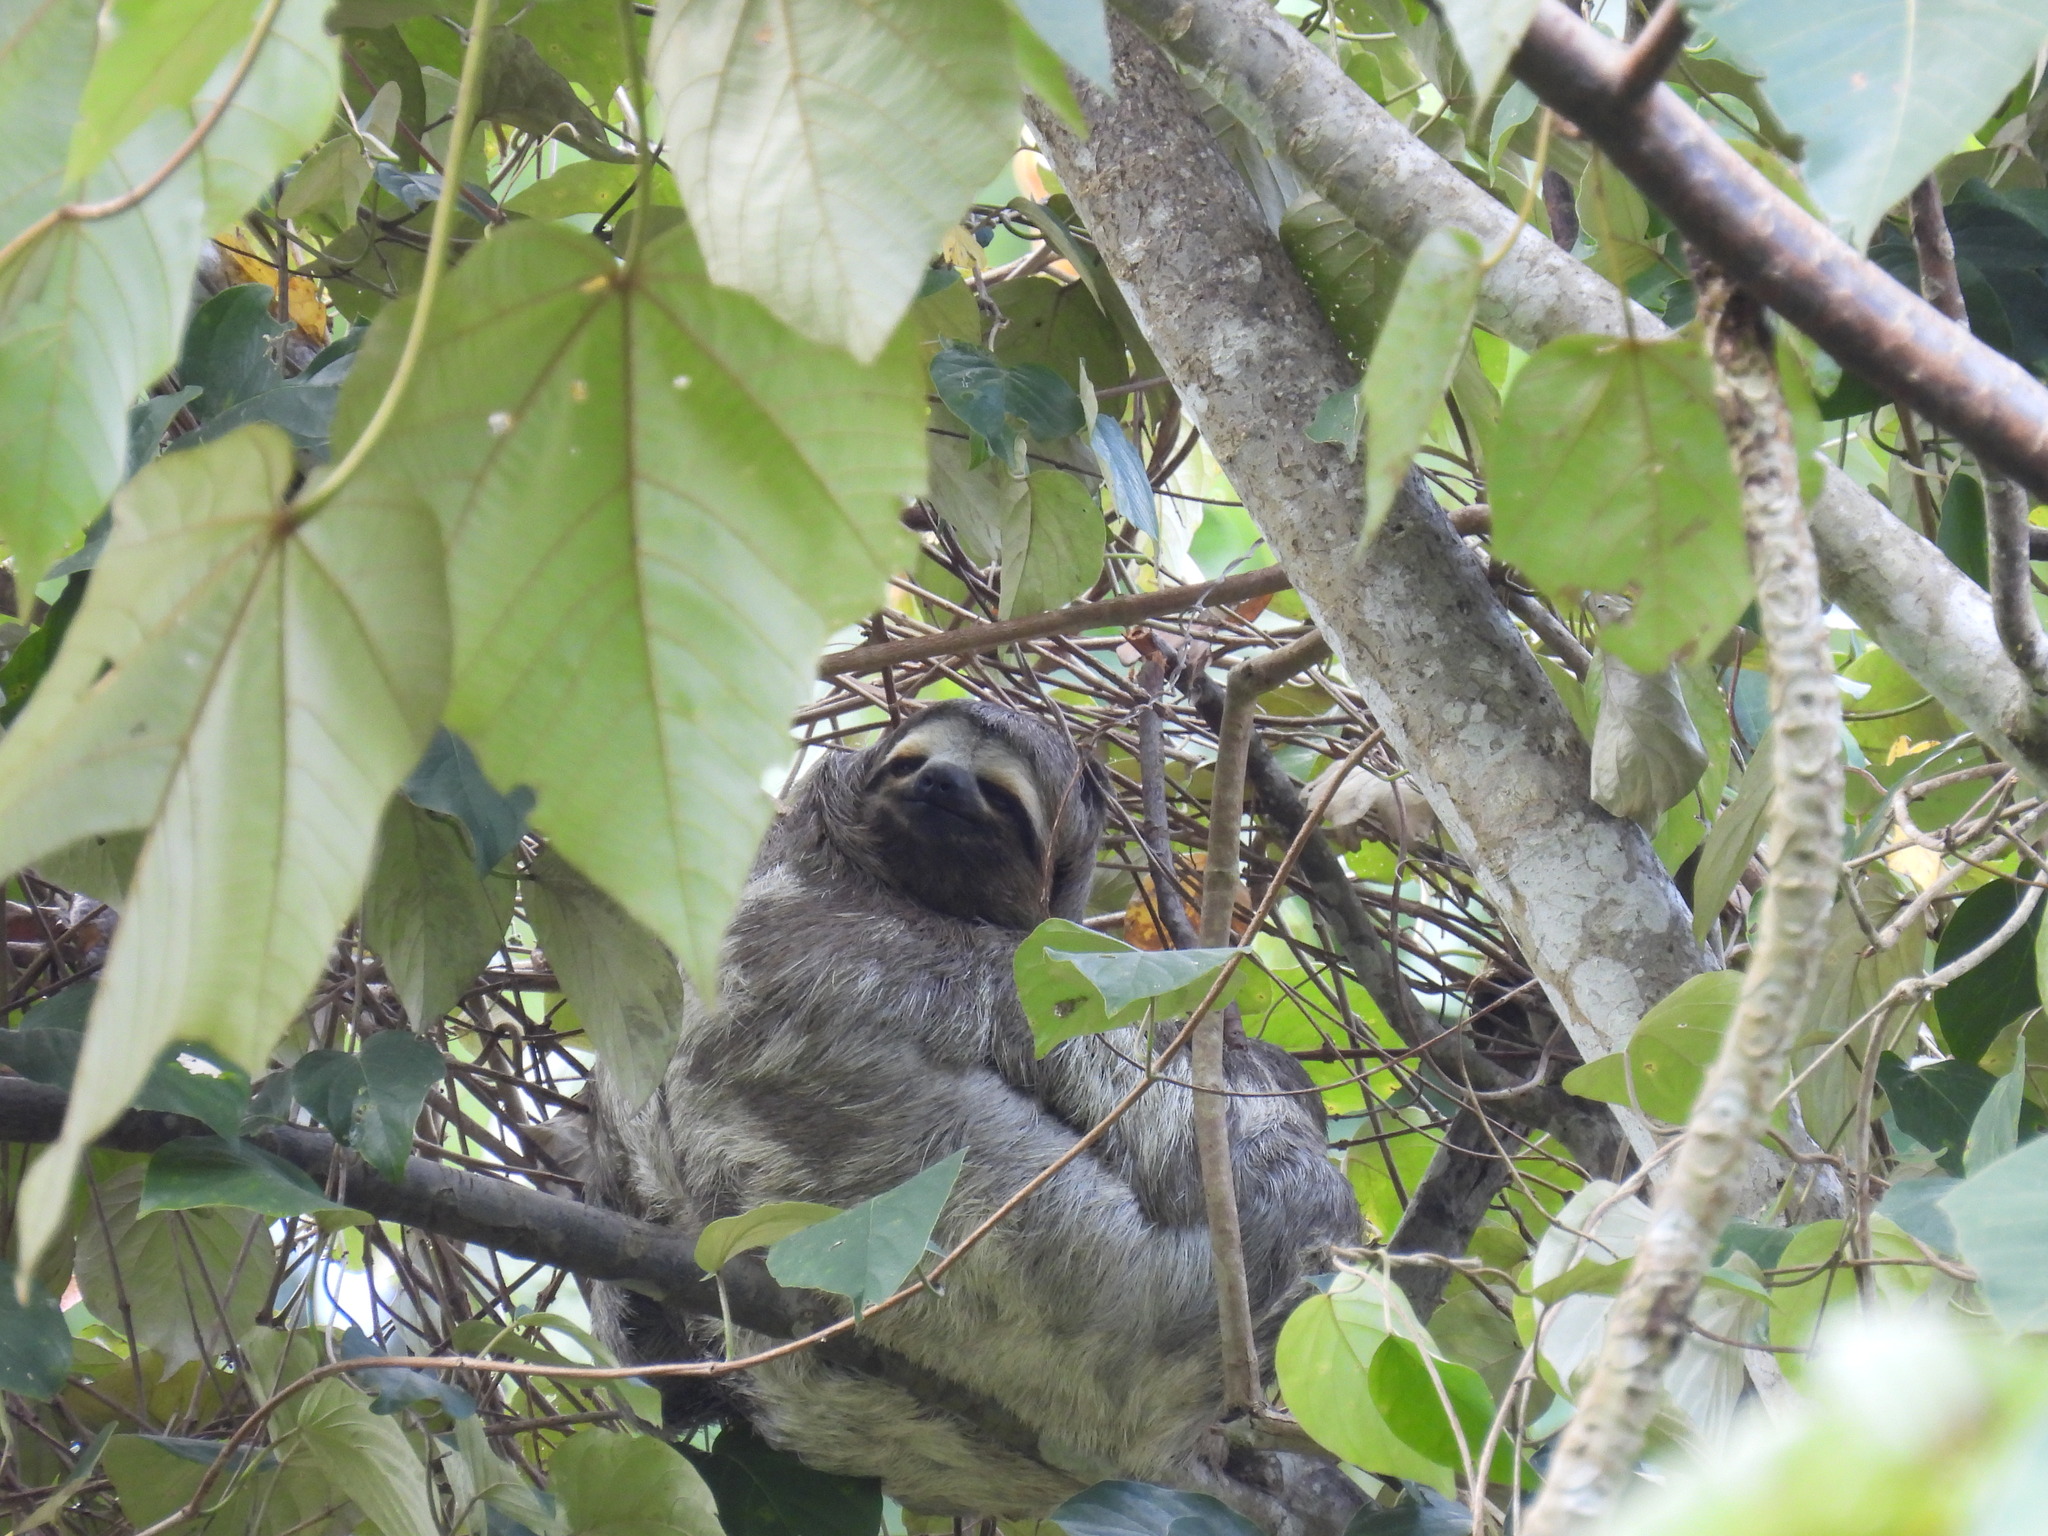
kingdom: Animalia
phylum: Chordata
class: Mammalia
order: Pilosa
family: Bradypodidae
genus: Bradypus
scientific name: Bradypus variegatus
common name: Brown-throated three-toed sloth
